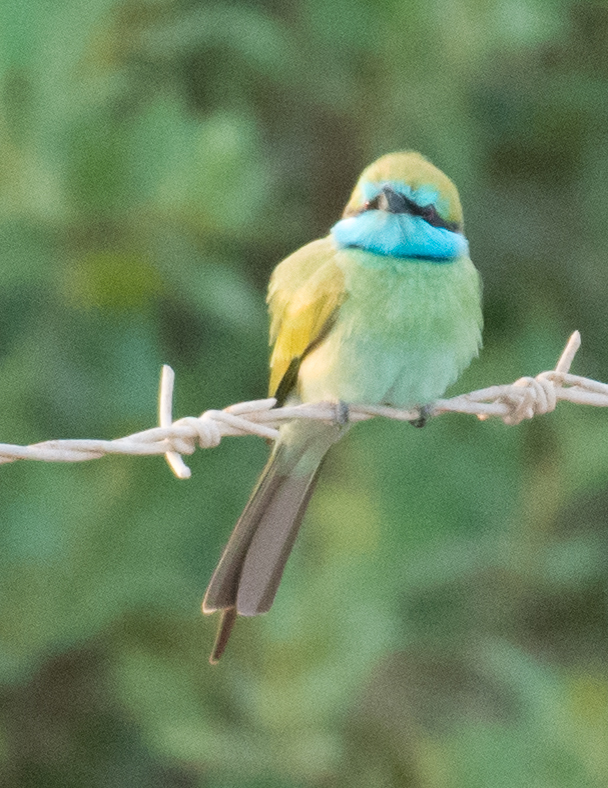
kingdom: Animalia
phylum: Chordata
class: Aves
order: Coraciiformes
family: Meropidae
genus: Merops
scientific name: Merops cyanophrys
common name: Arabian green bee-eater
